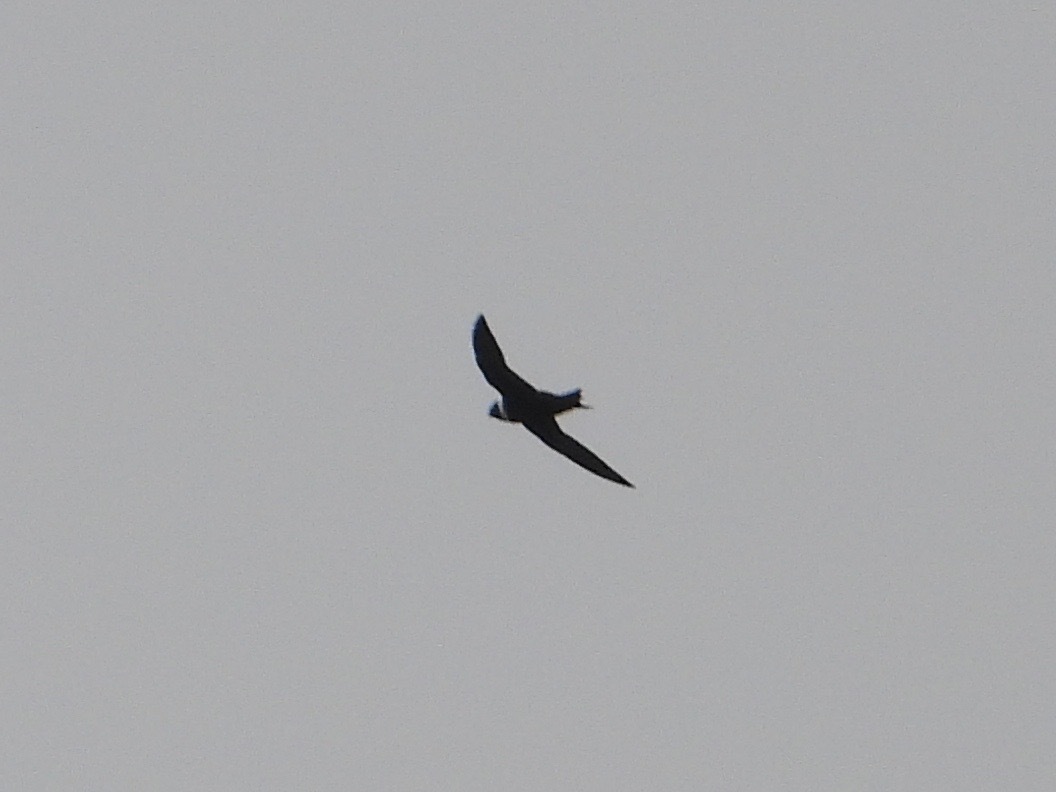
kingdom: Animalia
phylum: Chordata
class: Aves
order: Apodiformes
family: Apodidae
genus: Streptoprocne
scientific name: Streptoprocne zonaris
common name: White-collared swift
